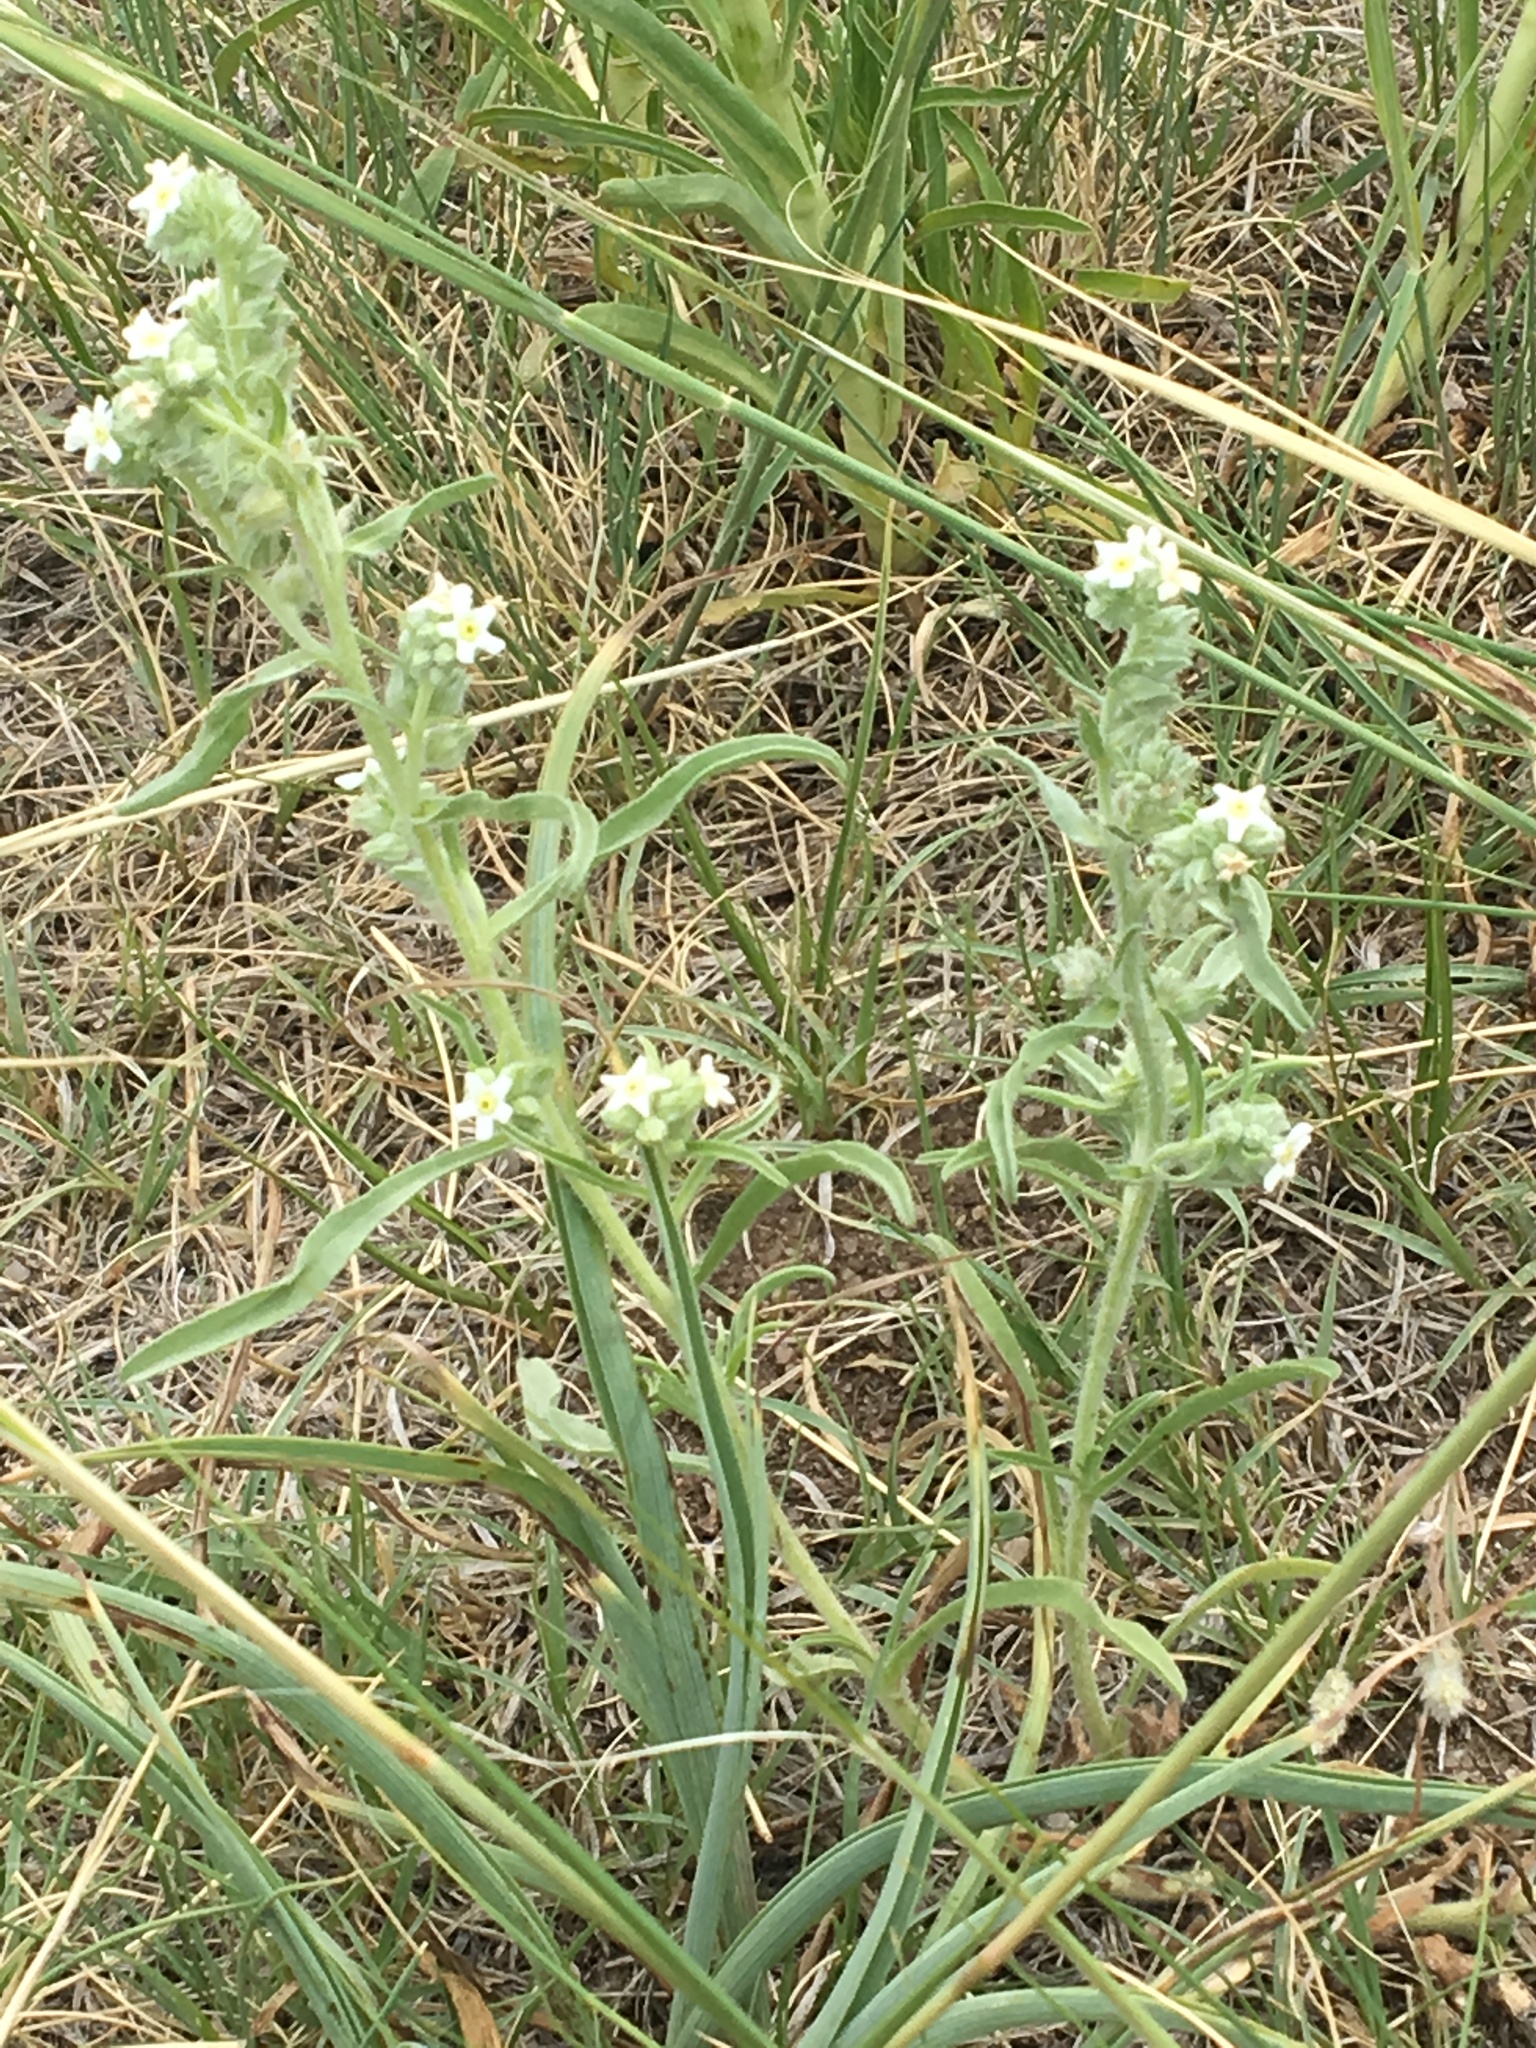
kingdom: Plantae
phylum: Tracheophyta
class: Magnoliopsida
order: Boraginales
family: Boraginaceae
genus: Oreocarya
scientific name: Oreocarya virgata
